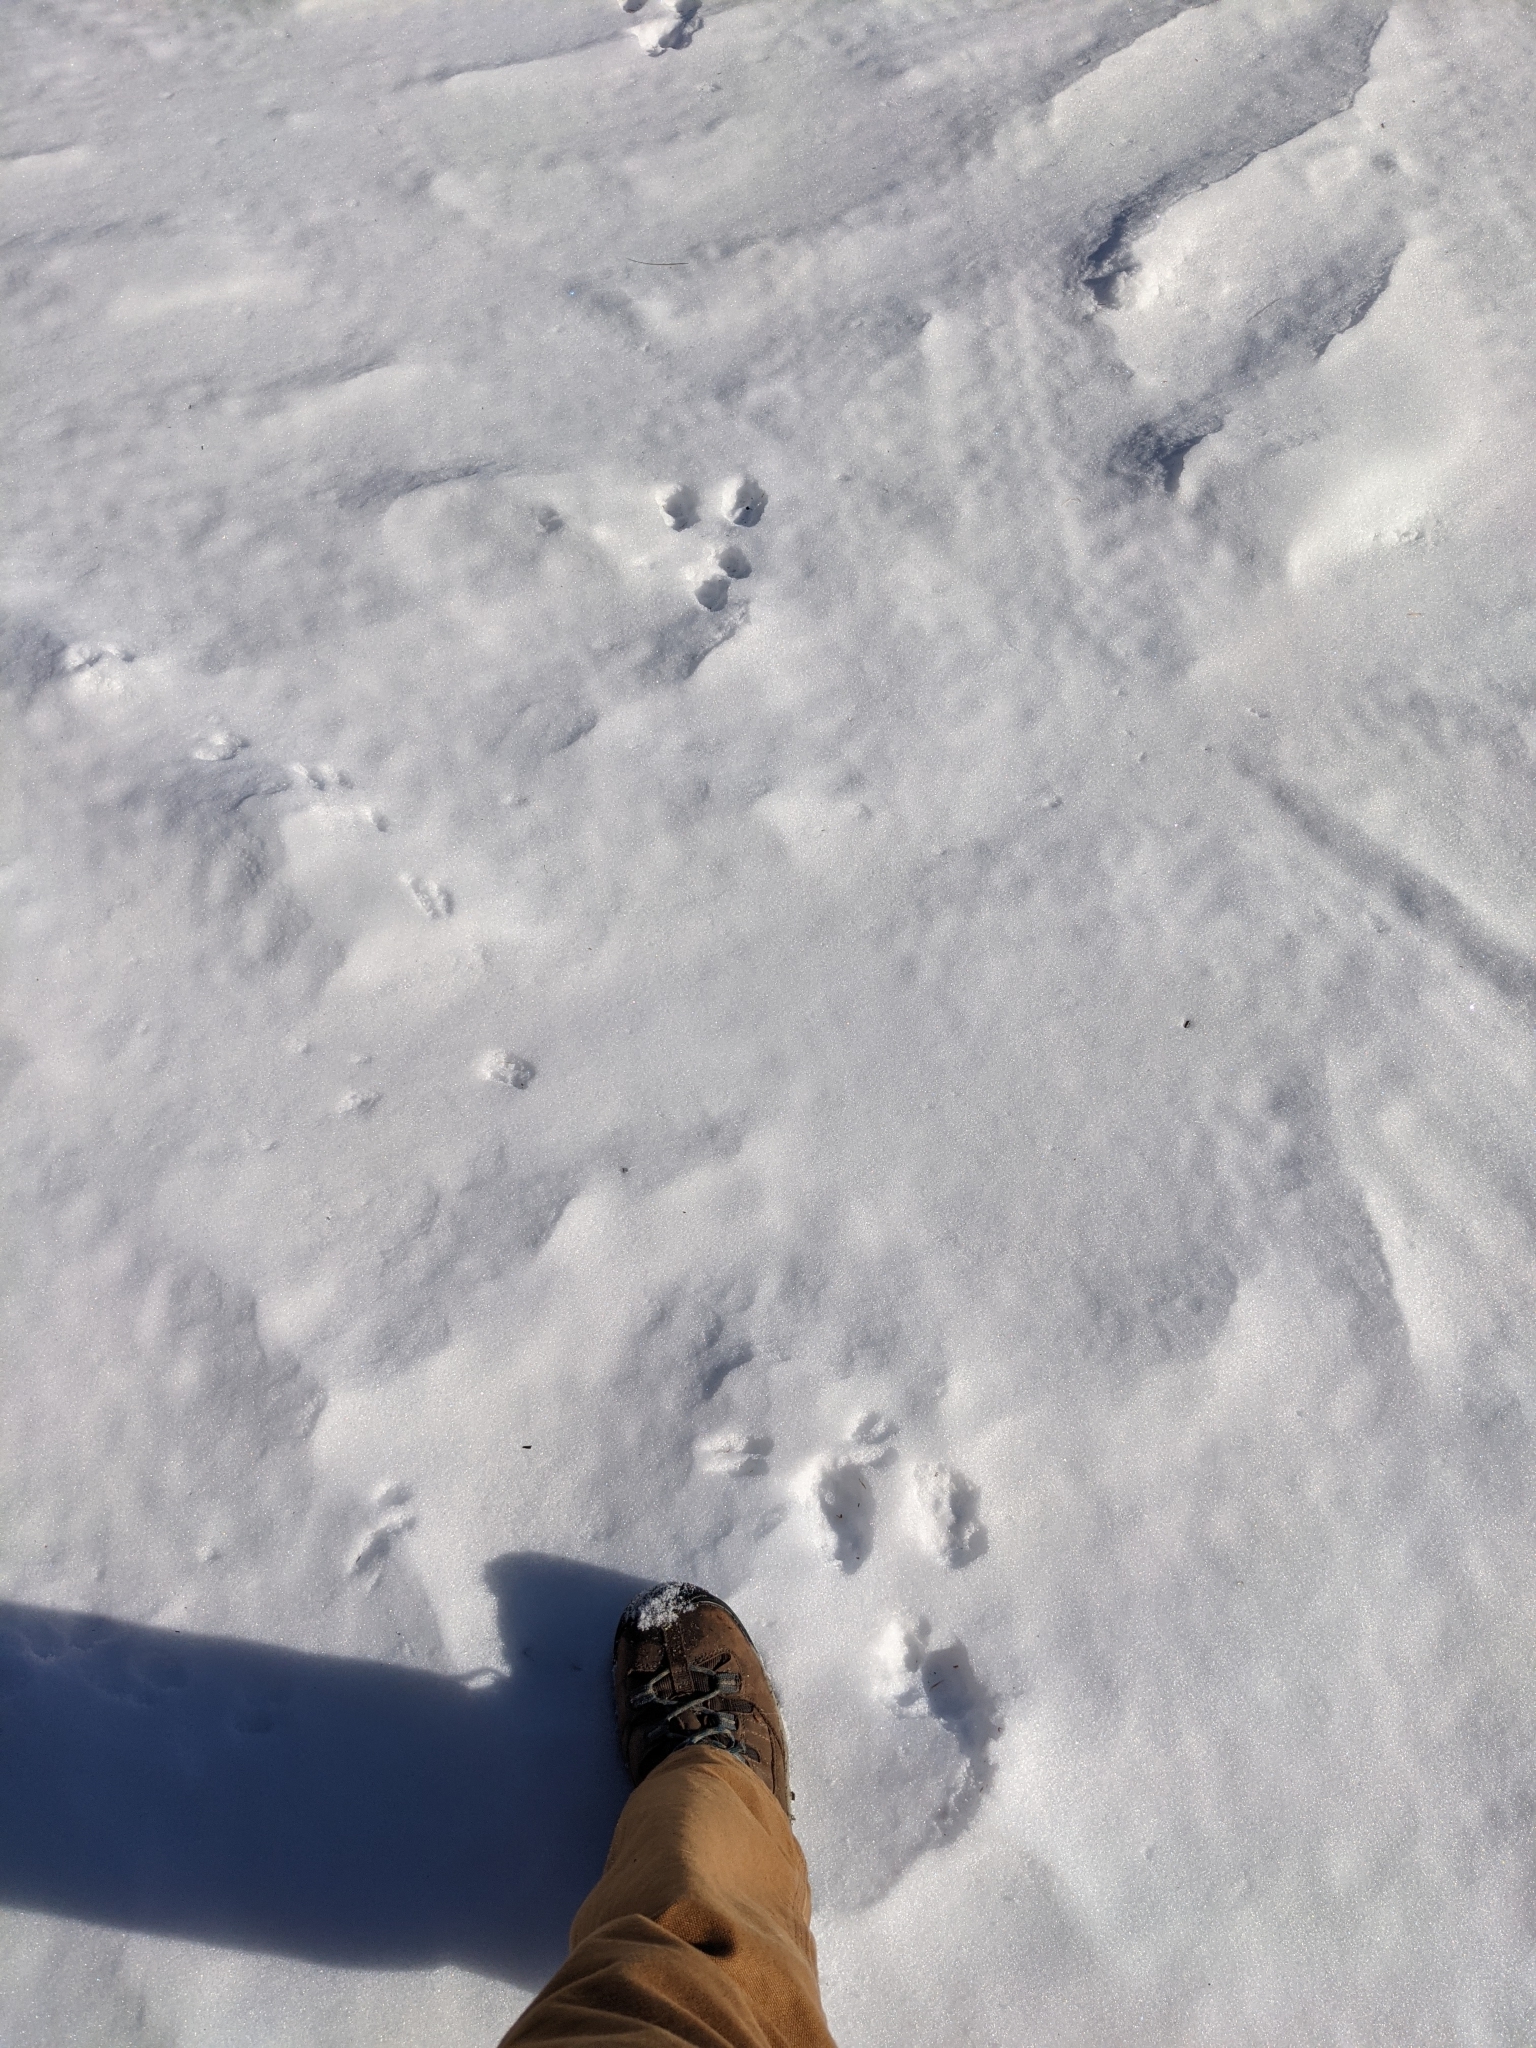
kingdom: Animalia
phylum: Chordata
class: Mammalia
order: Lagomorpha
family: Leporidae
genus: Lepus
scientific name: Lepus americanus
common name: Snowshoe hare
